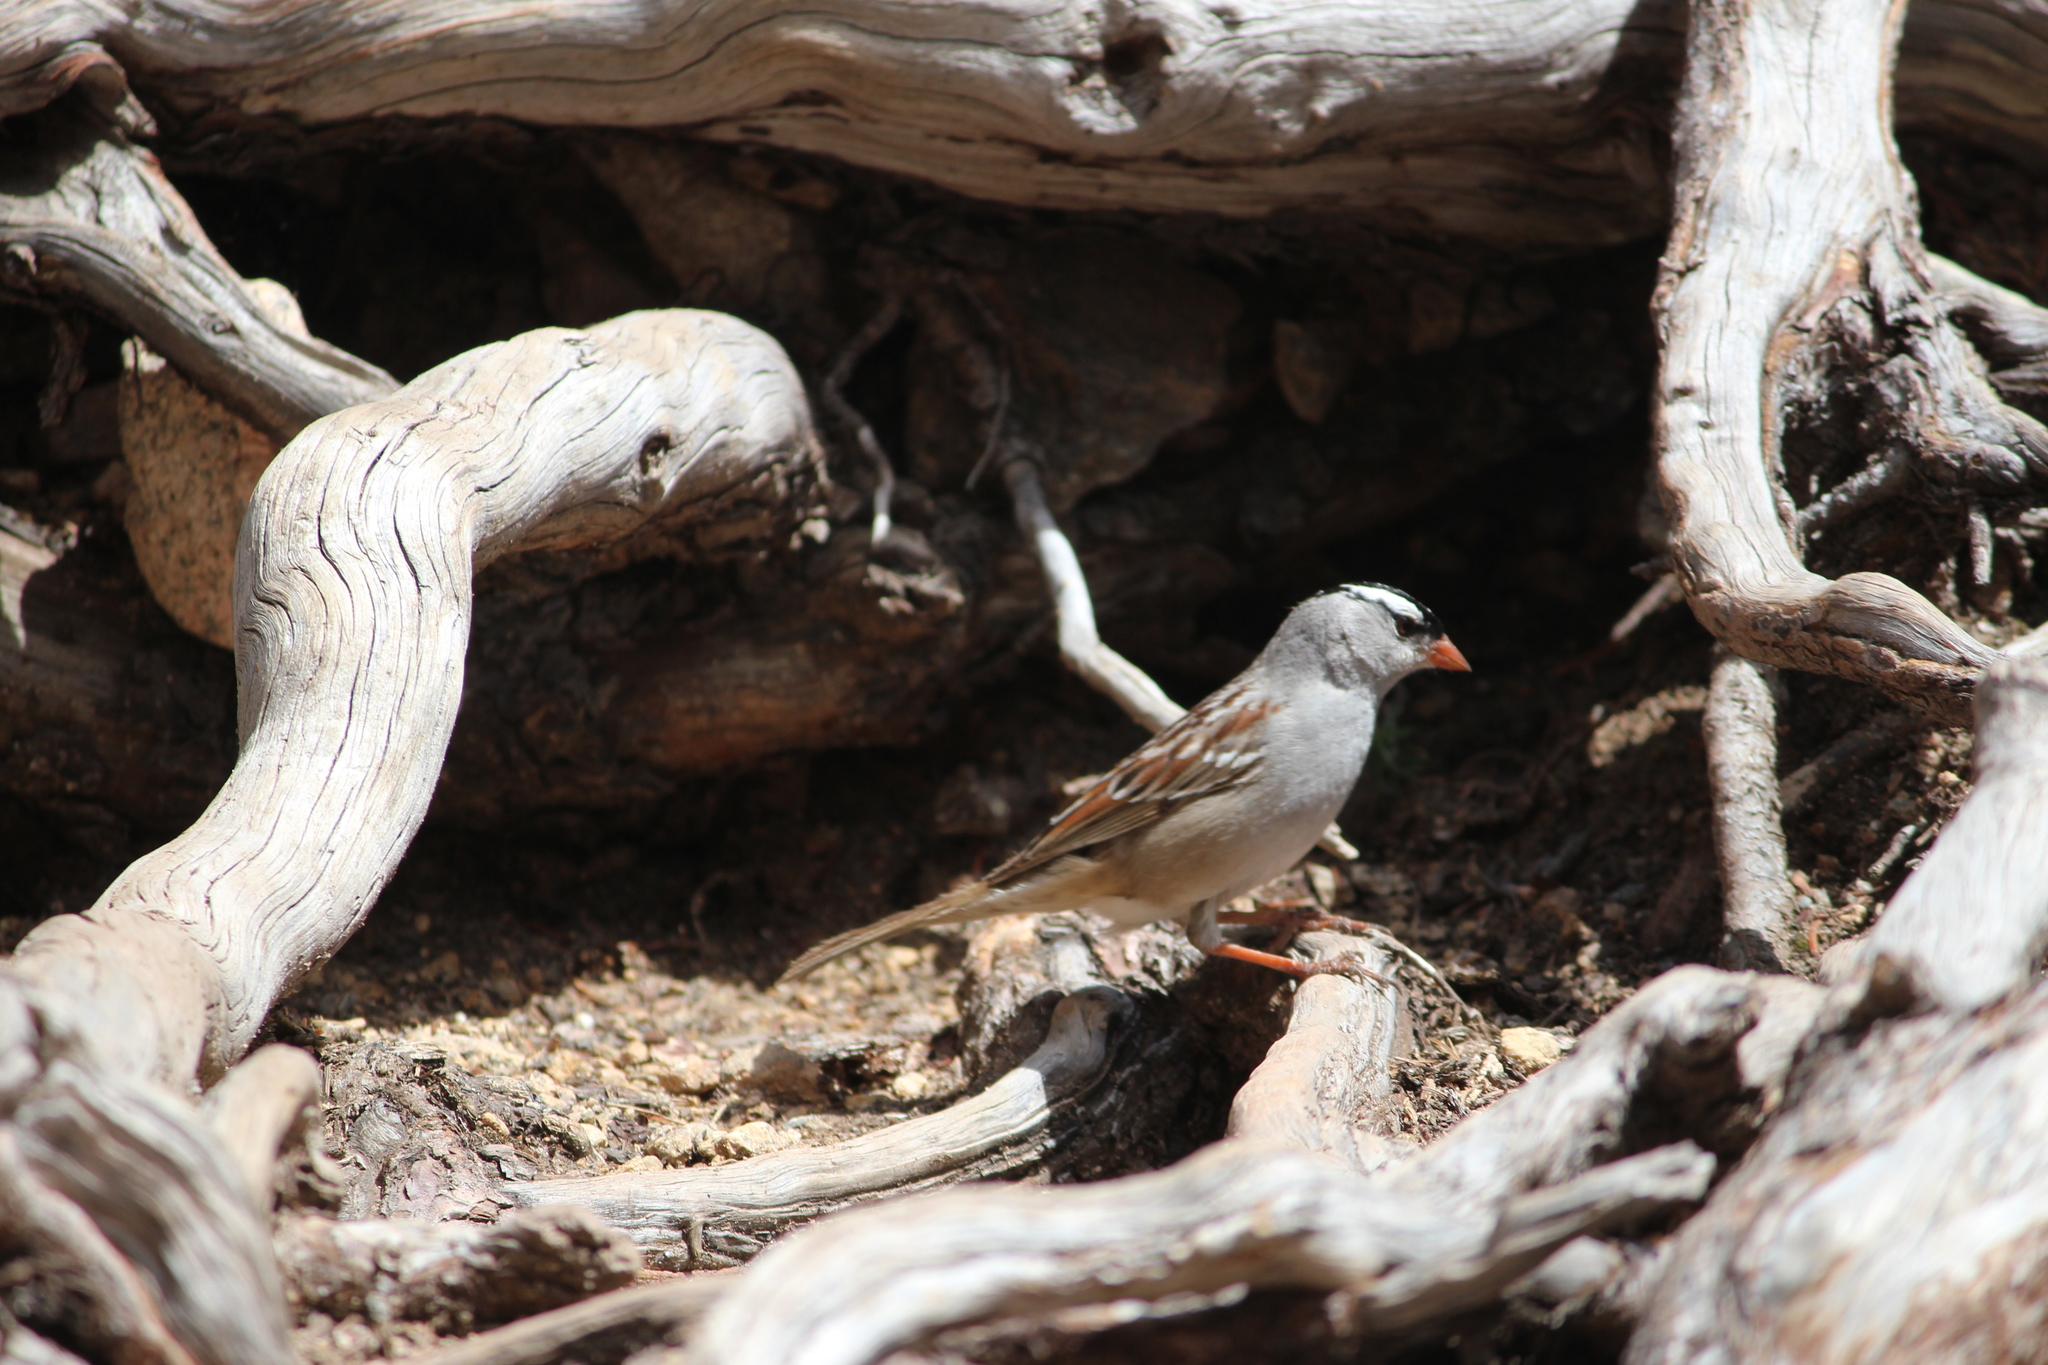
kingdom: Animalia
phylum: Chordata
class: Aves
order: Passeriformes
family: Passerellidae
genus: Zonotrichia
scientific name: Zonotrichia leucophrys
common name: White-crowned sparrow
